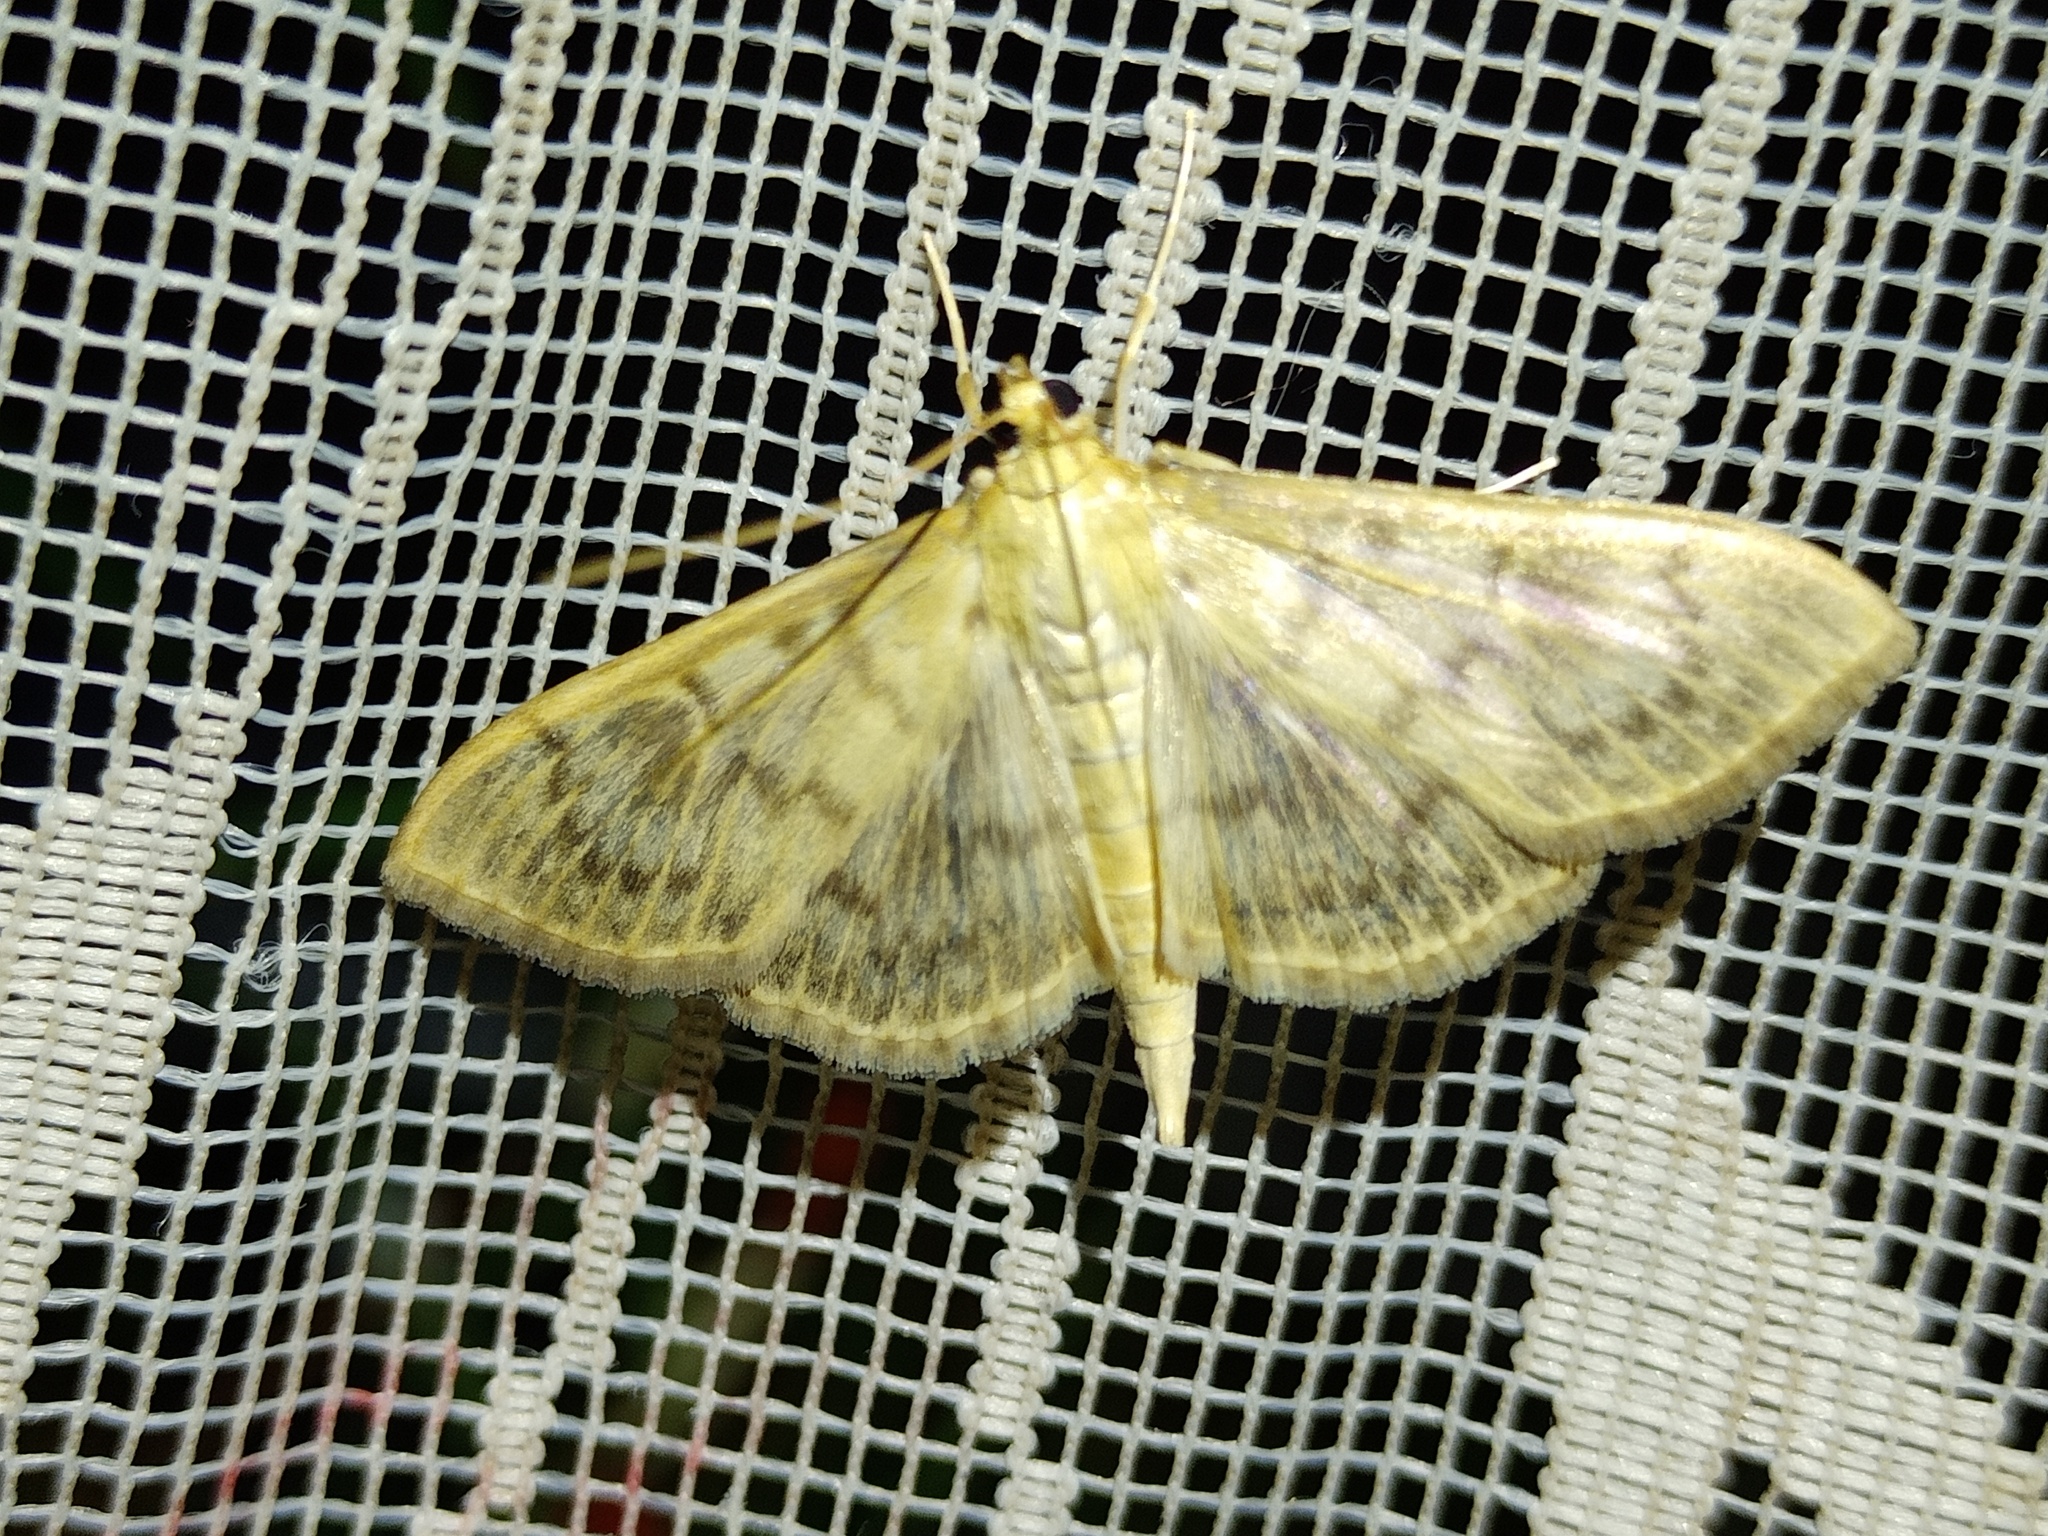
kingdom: Animalia
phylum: Arthropoda
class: Insecta
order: Lepidoptera
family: Crambidae
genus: Patania
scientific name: Patania ruralis
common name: Mother of pearl
